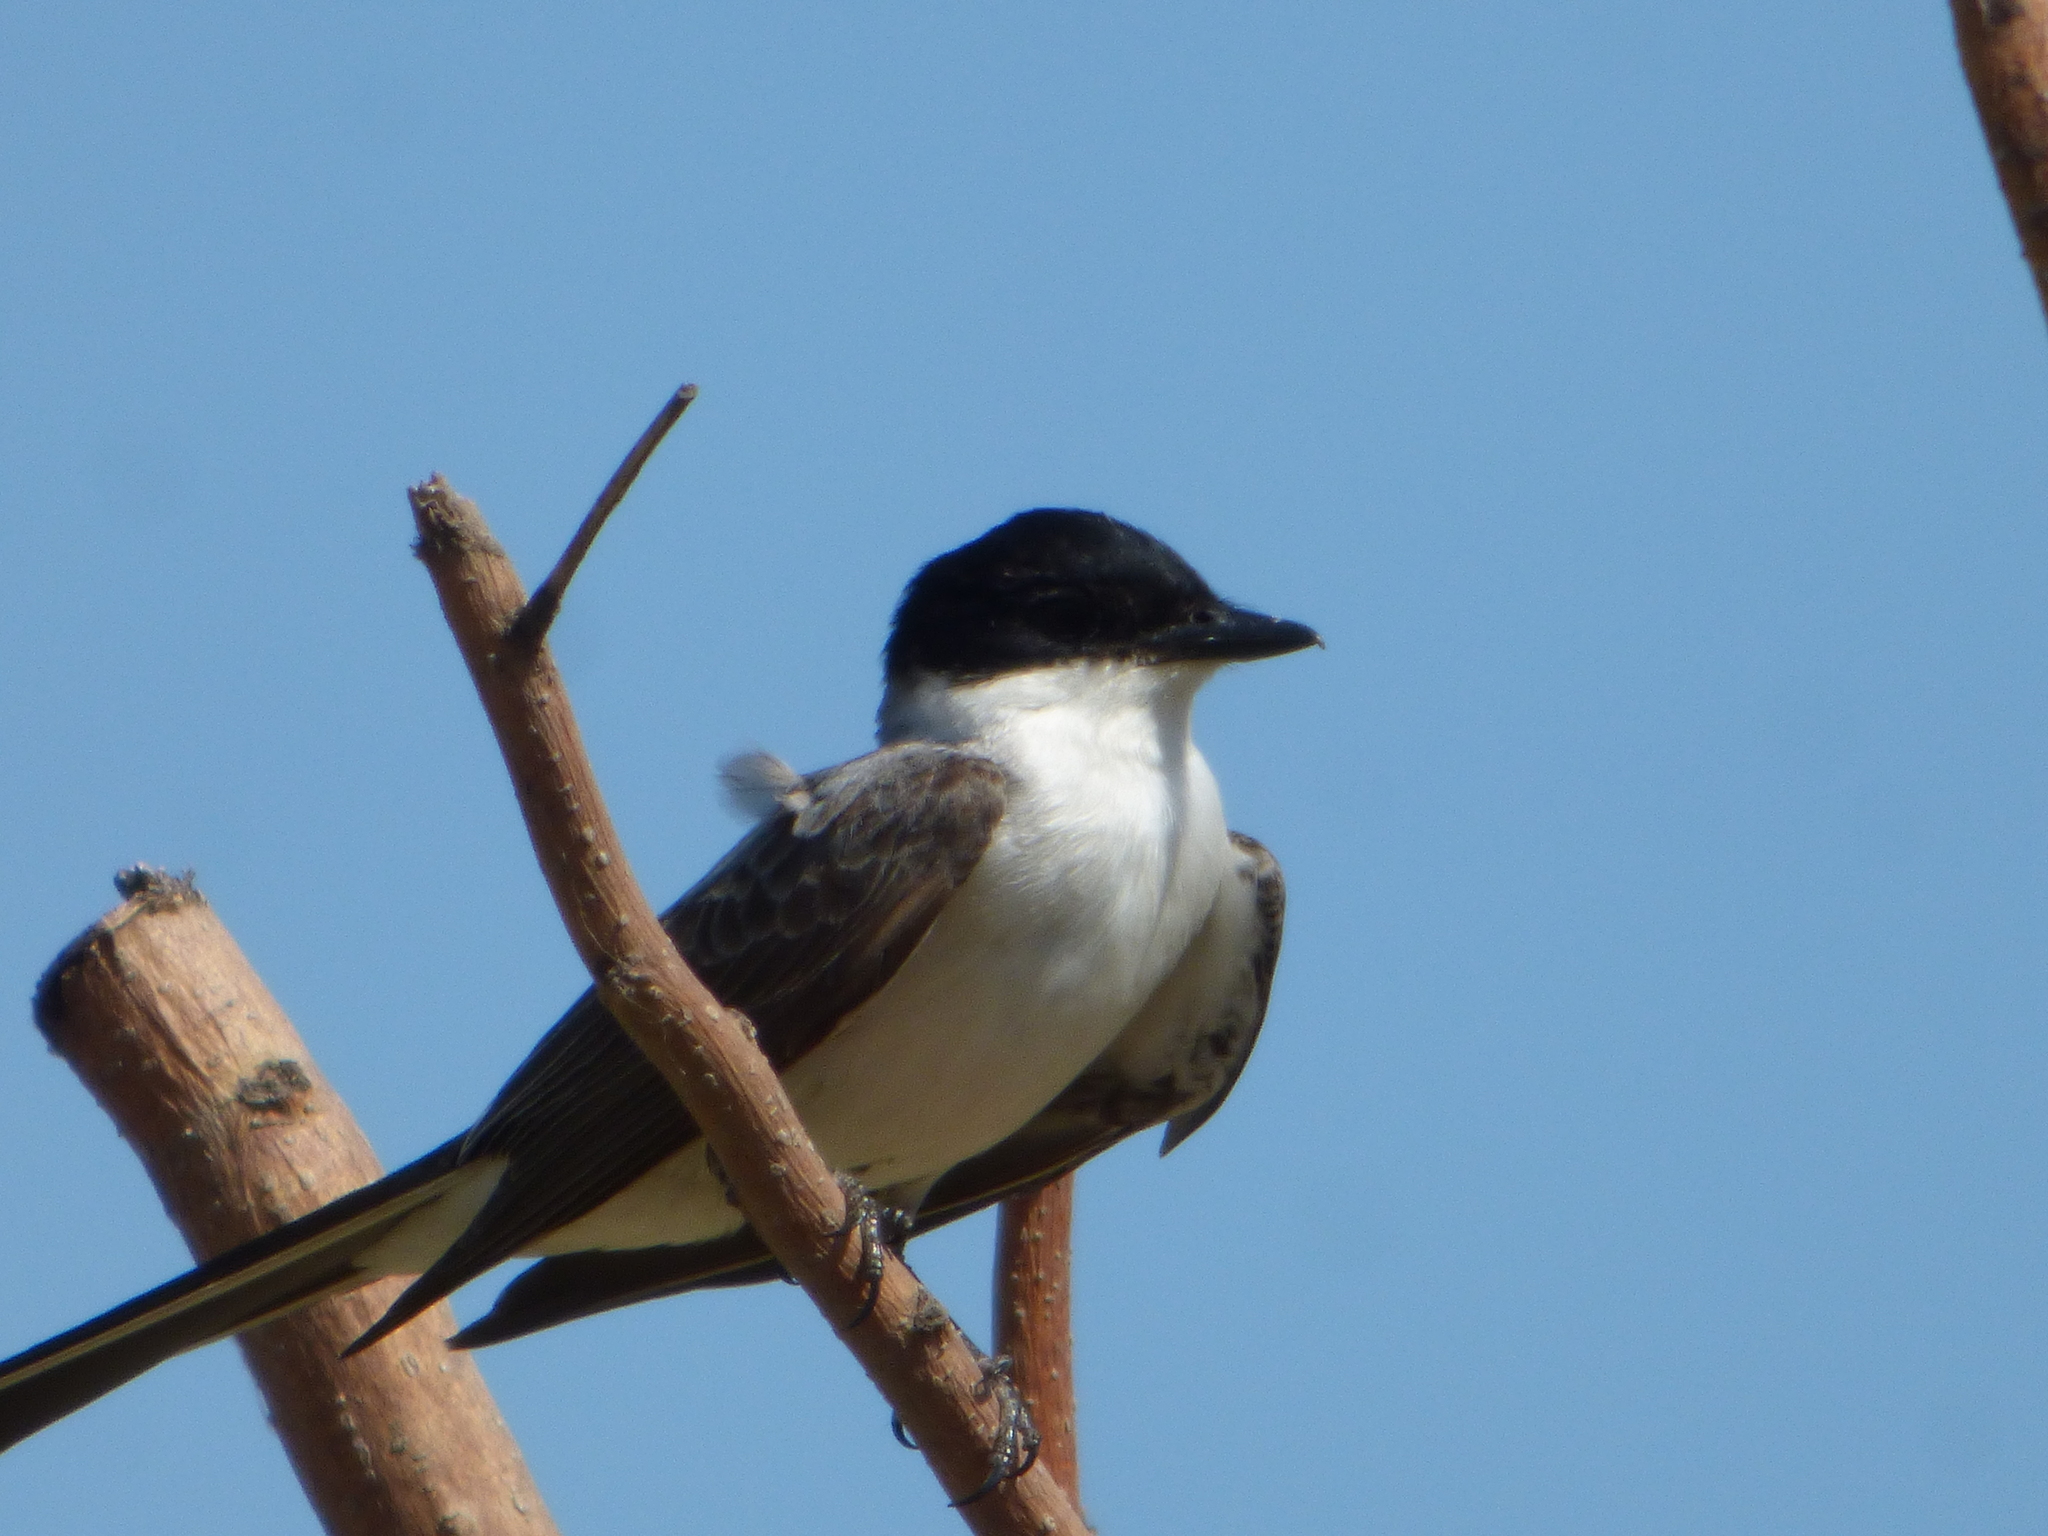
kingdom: Animalia
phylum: Chordata
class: Aves
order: Passeriformes
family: Tyrannidae
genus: Tyrannus
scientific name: Tyrannus savana
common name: Fork-tailed flycatcher
